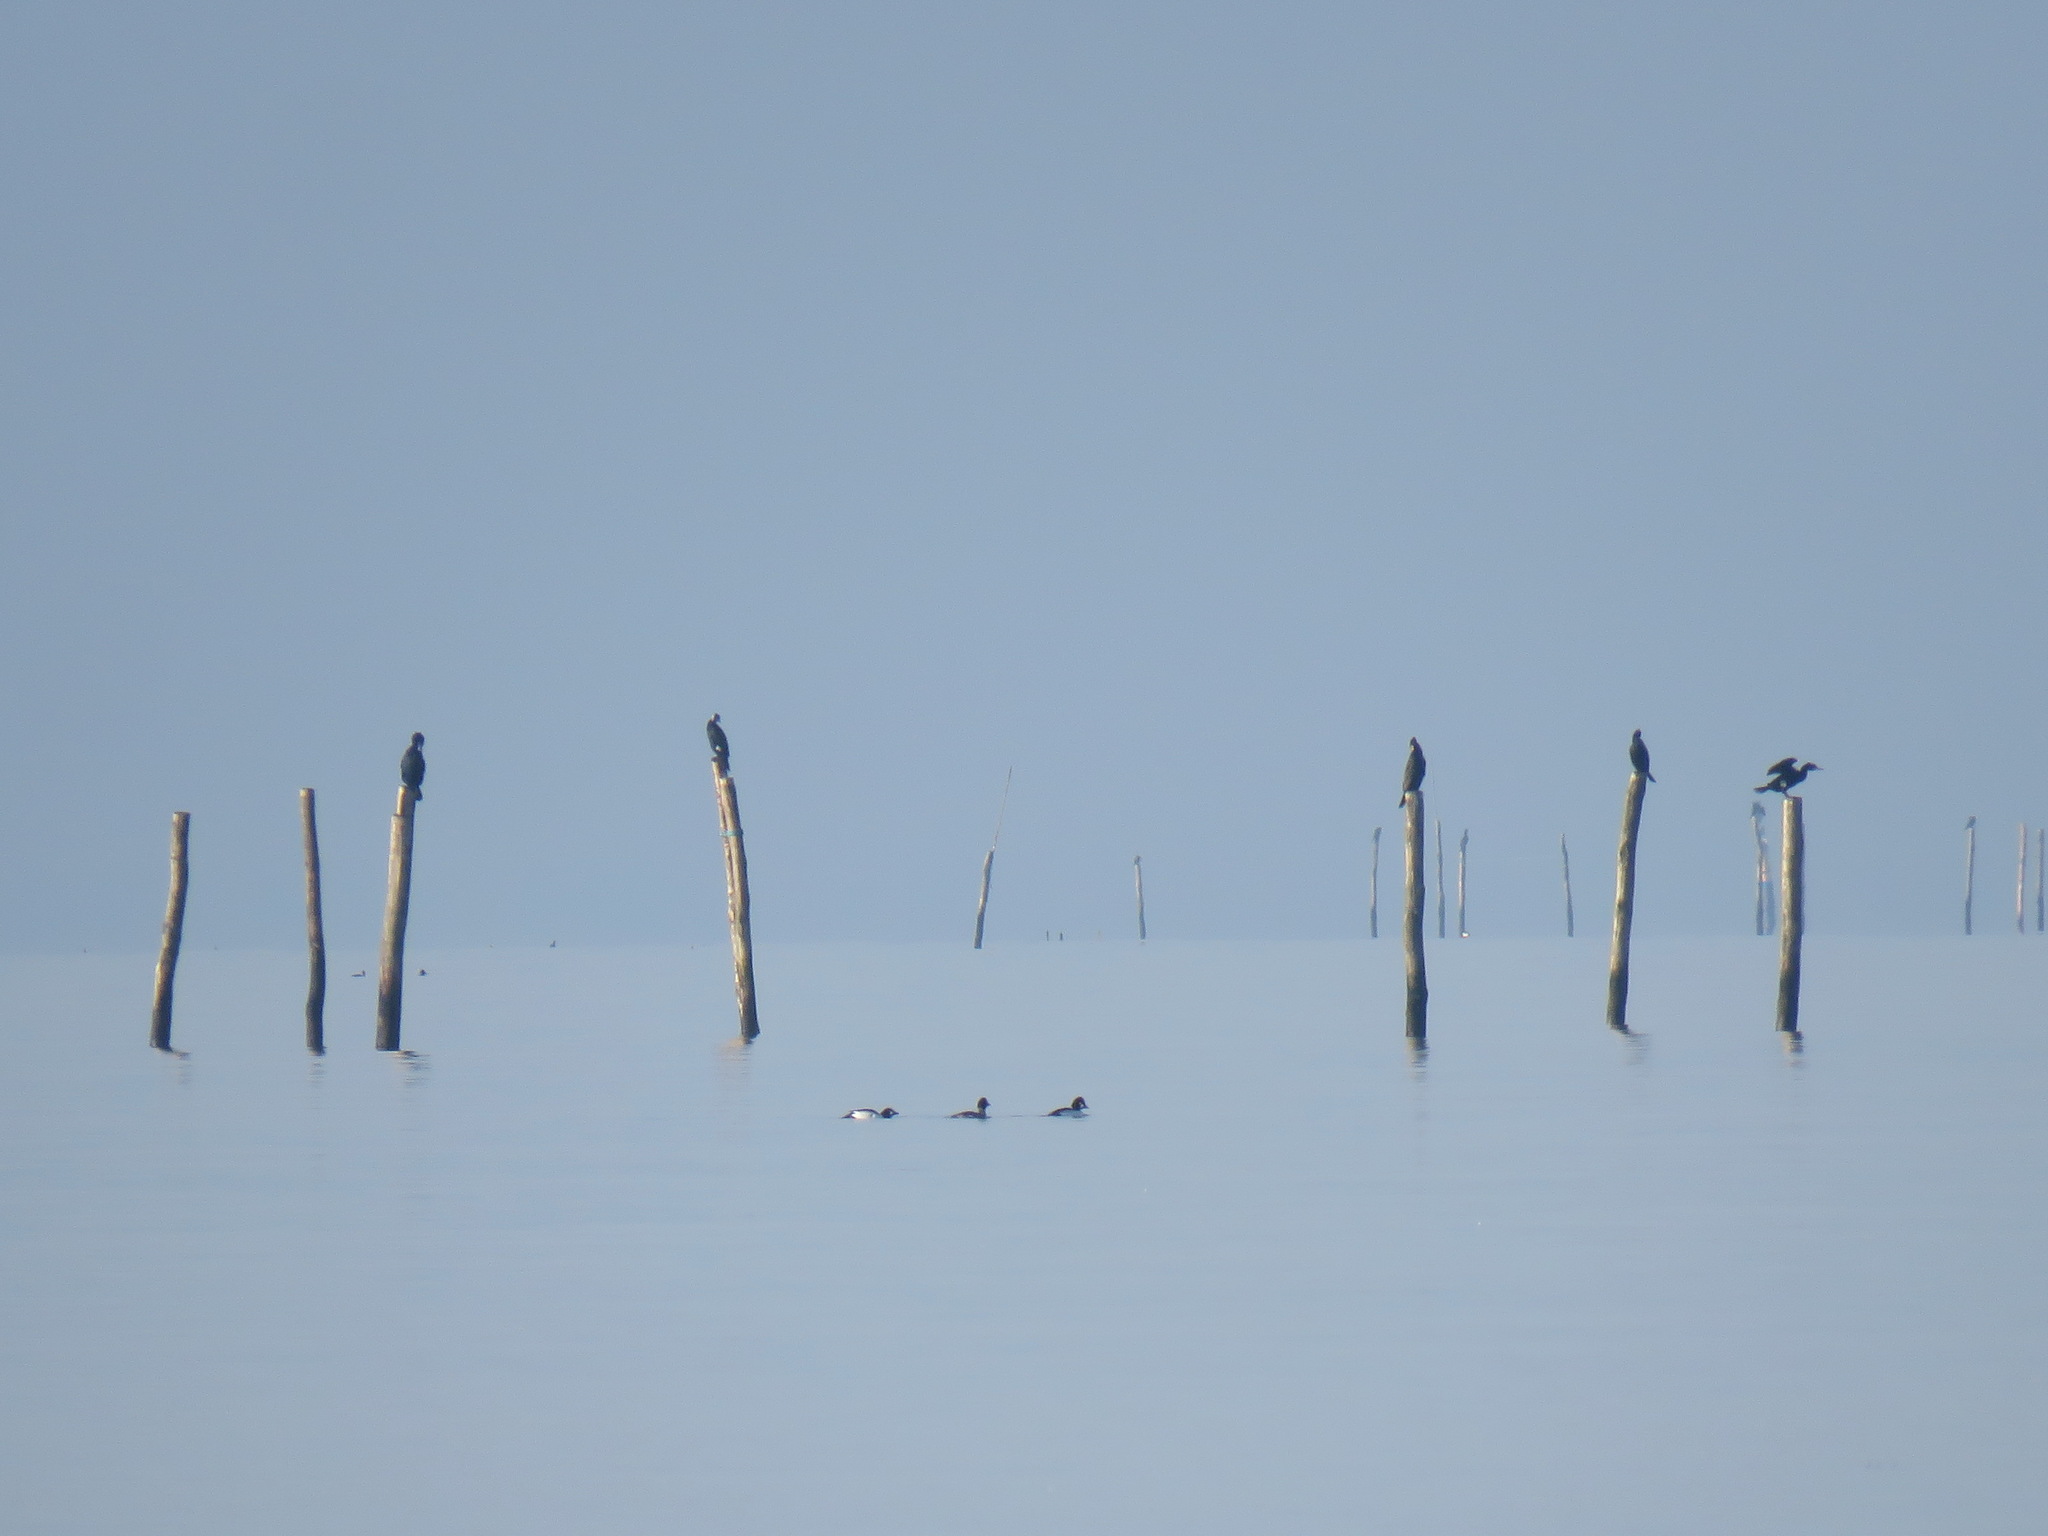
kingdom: Animalia
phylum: Chordata
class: Aves
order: Anseriformes
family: Anatidae
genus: Bucephala
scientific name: Bucephala clangula
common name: Common goldeneye
